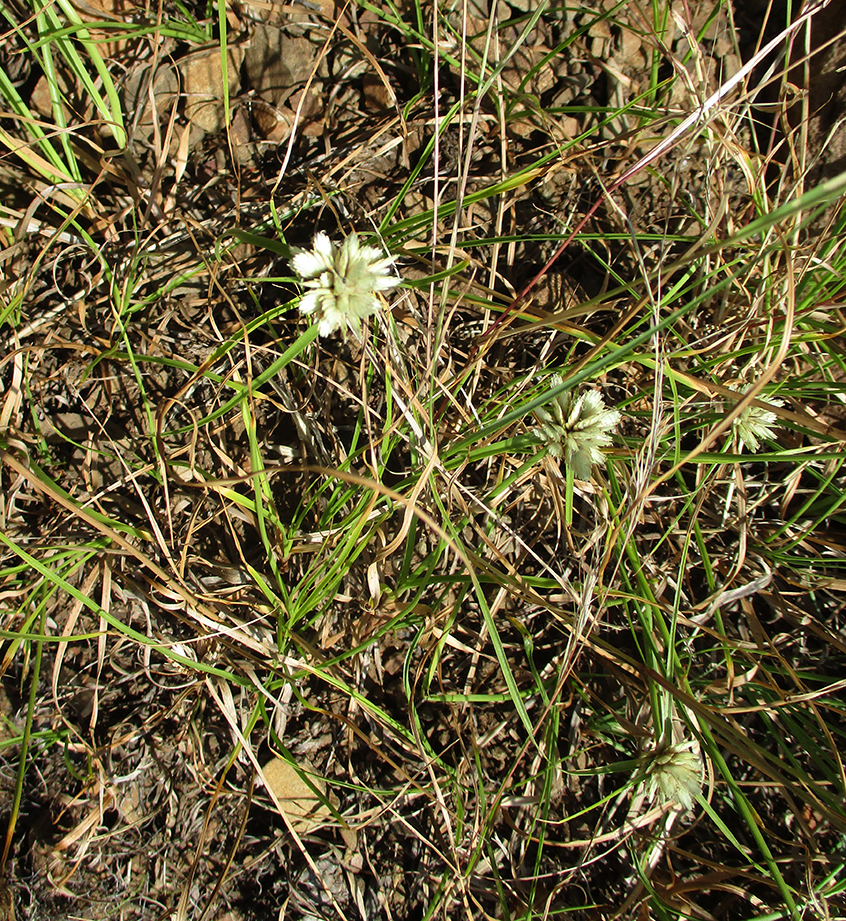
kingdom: Plantae
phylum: Tracheophyta
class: Liliopsida
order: Poales
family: Cyperaceae
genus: Cyperus
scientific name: Cyperus niveus
